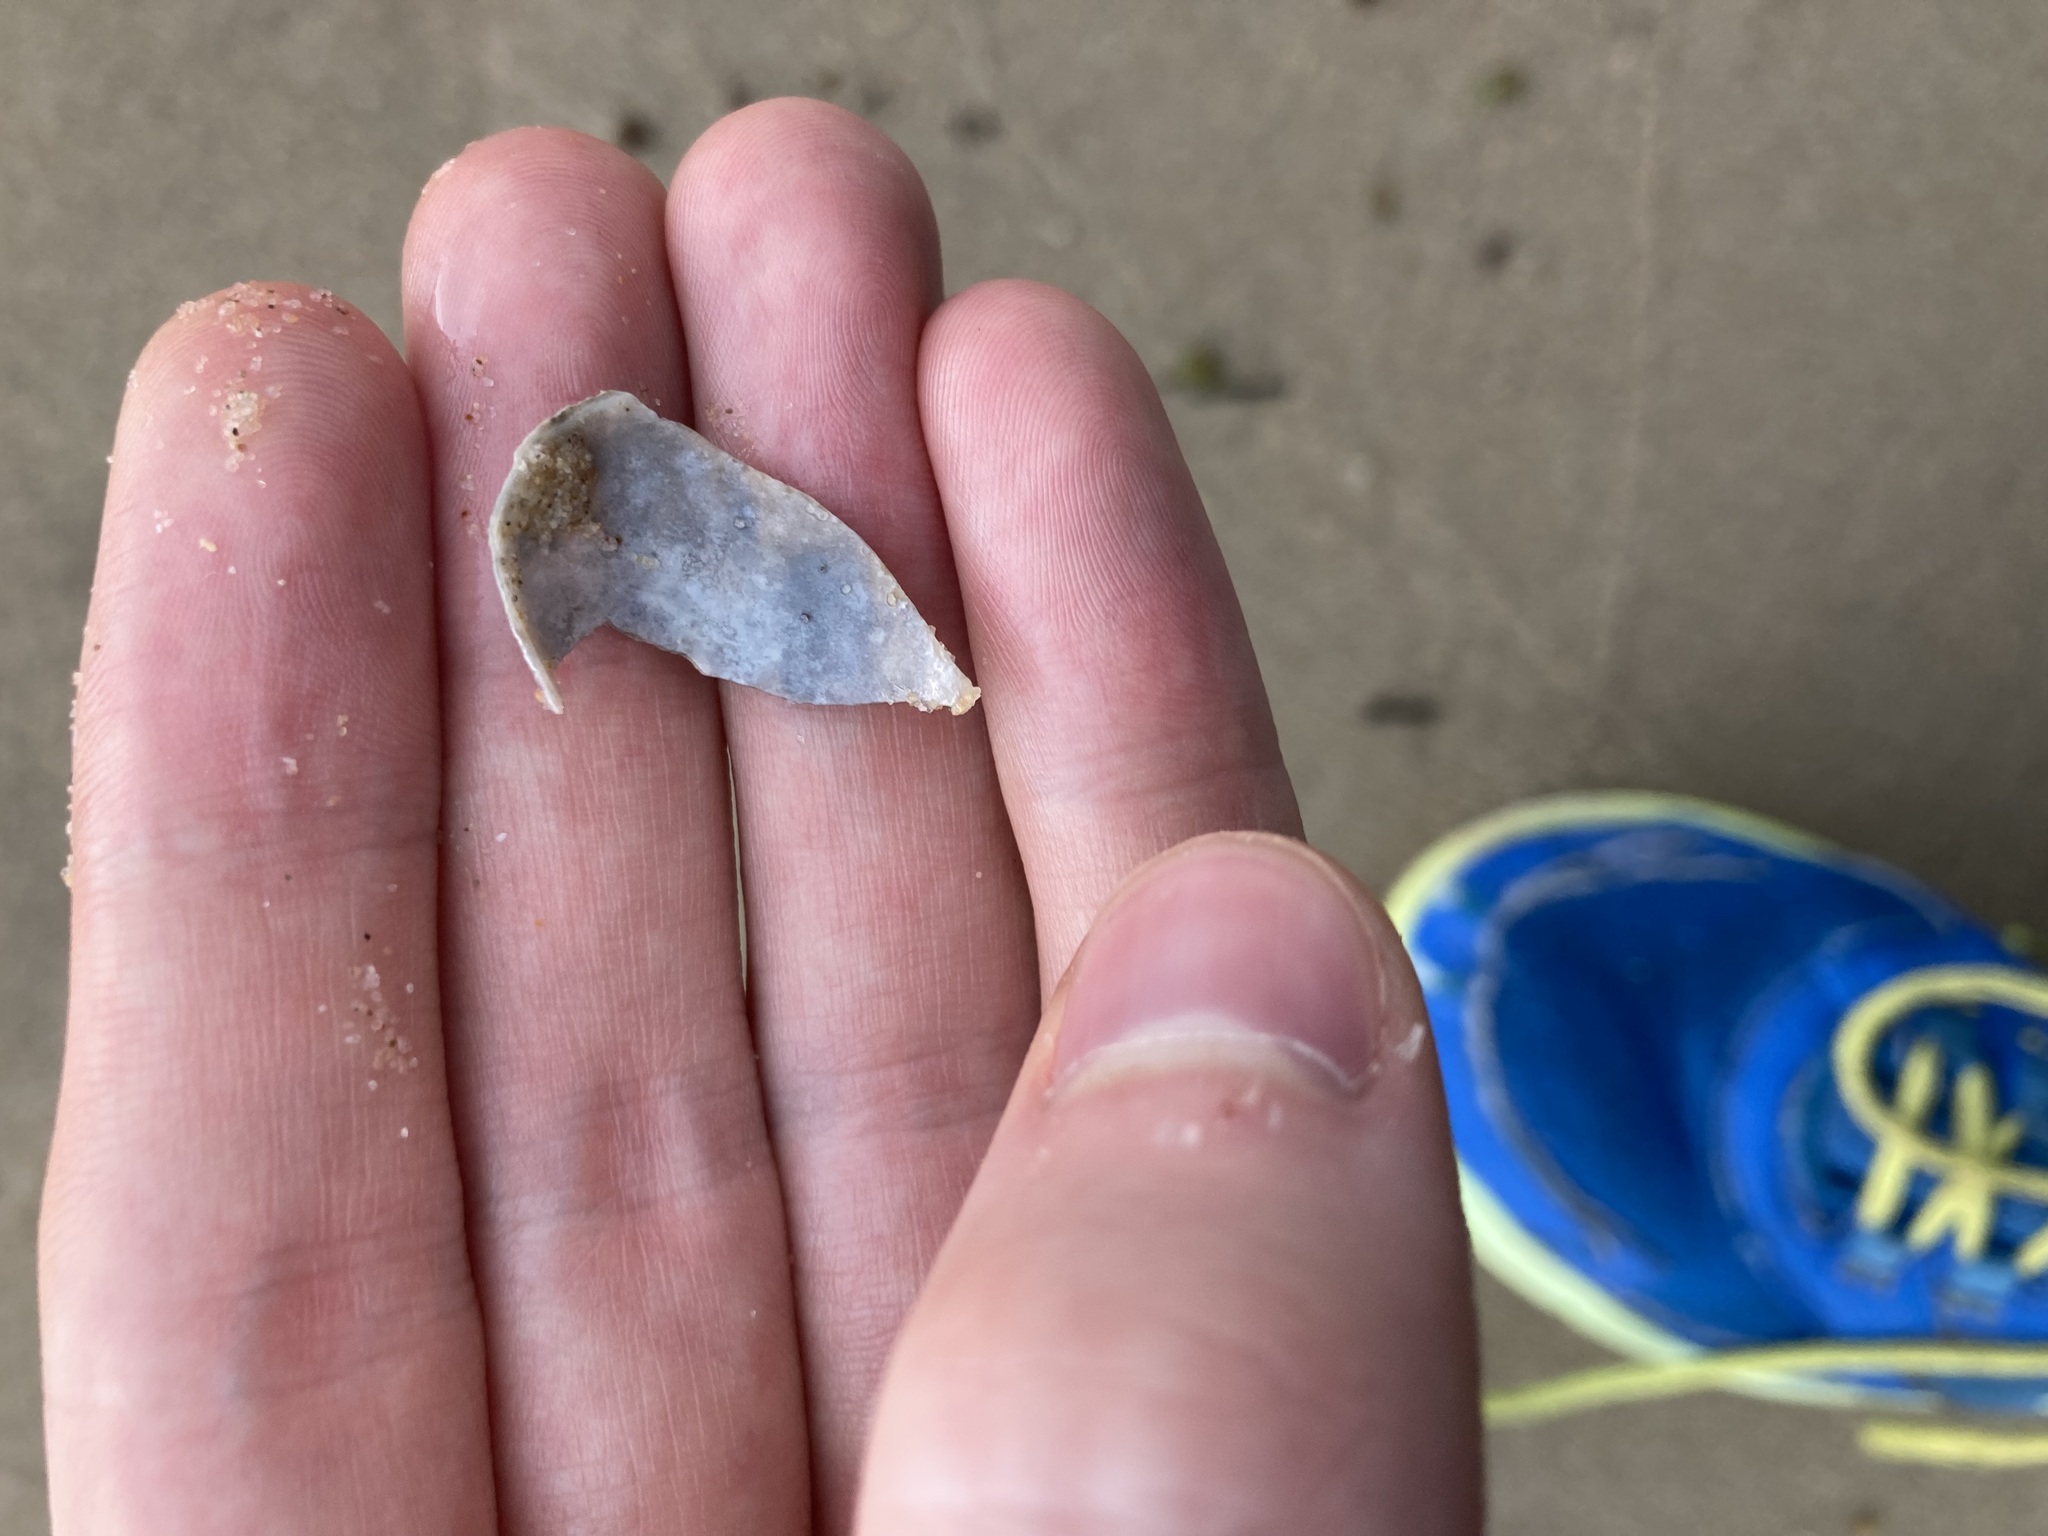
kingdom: Animalia
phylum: Mollusca
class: Bivalvia
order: Venerida
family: Veneridae
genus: Irus
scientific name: Irus crenatus
